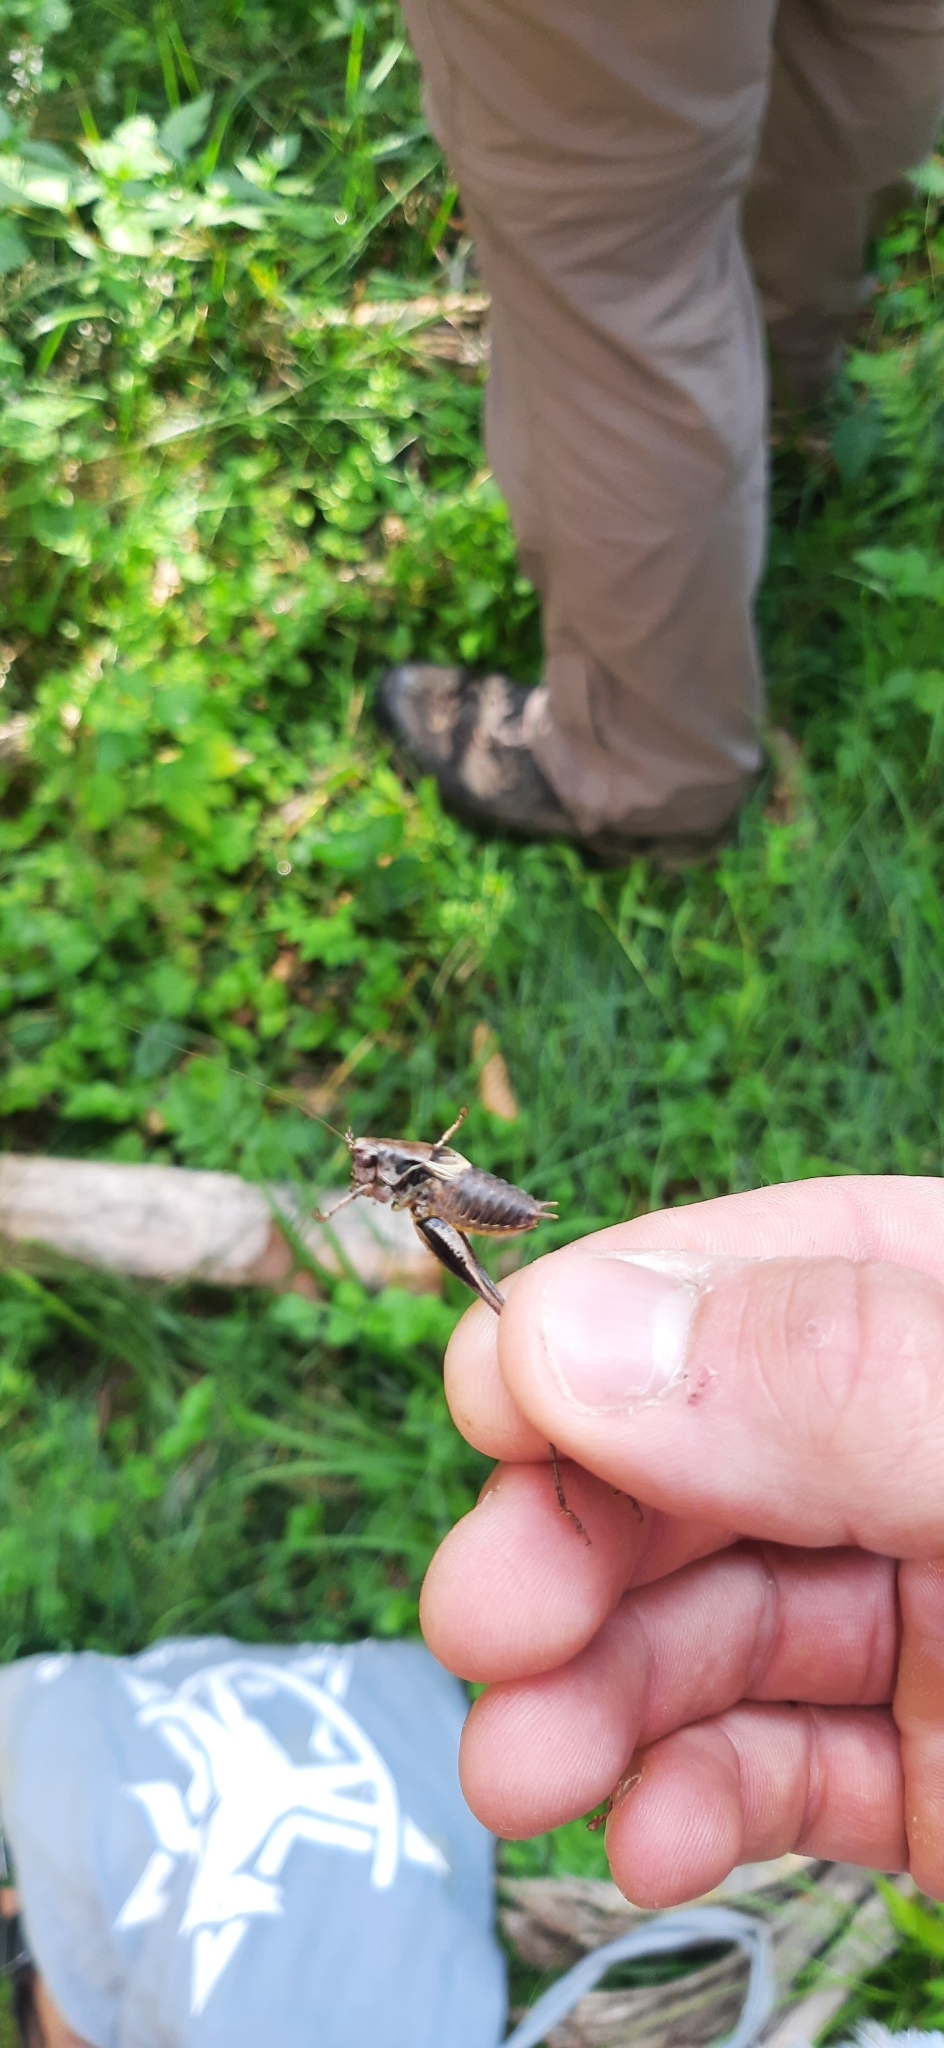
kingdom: Animalia
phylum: Arthropoda
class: Insecta
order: Orthoptera
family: Tettigoniidae
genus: Pholidoptera
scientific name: Pholidoptera griseoaptera
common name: Dark bush-cricket
